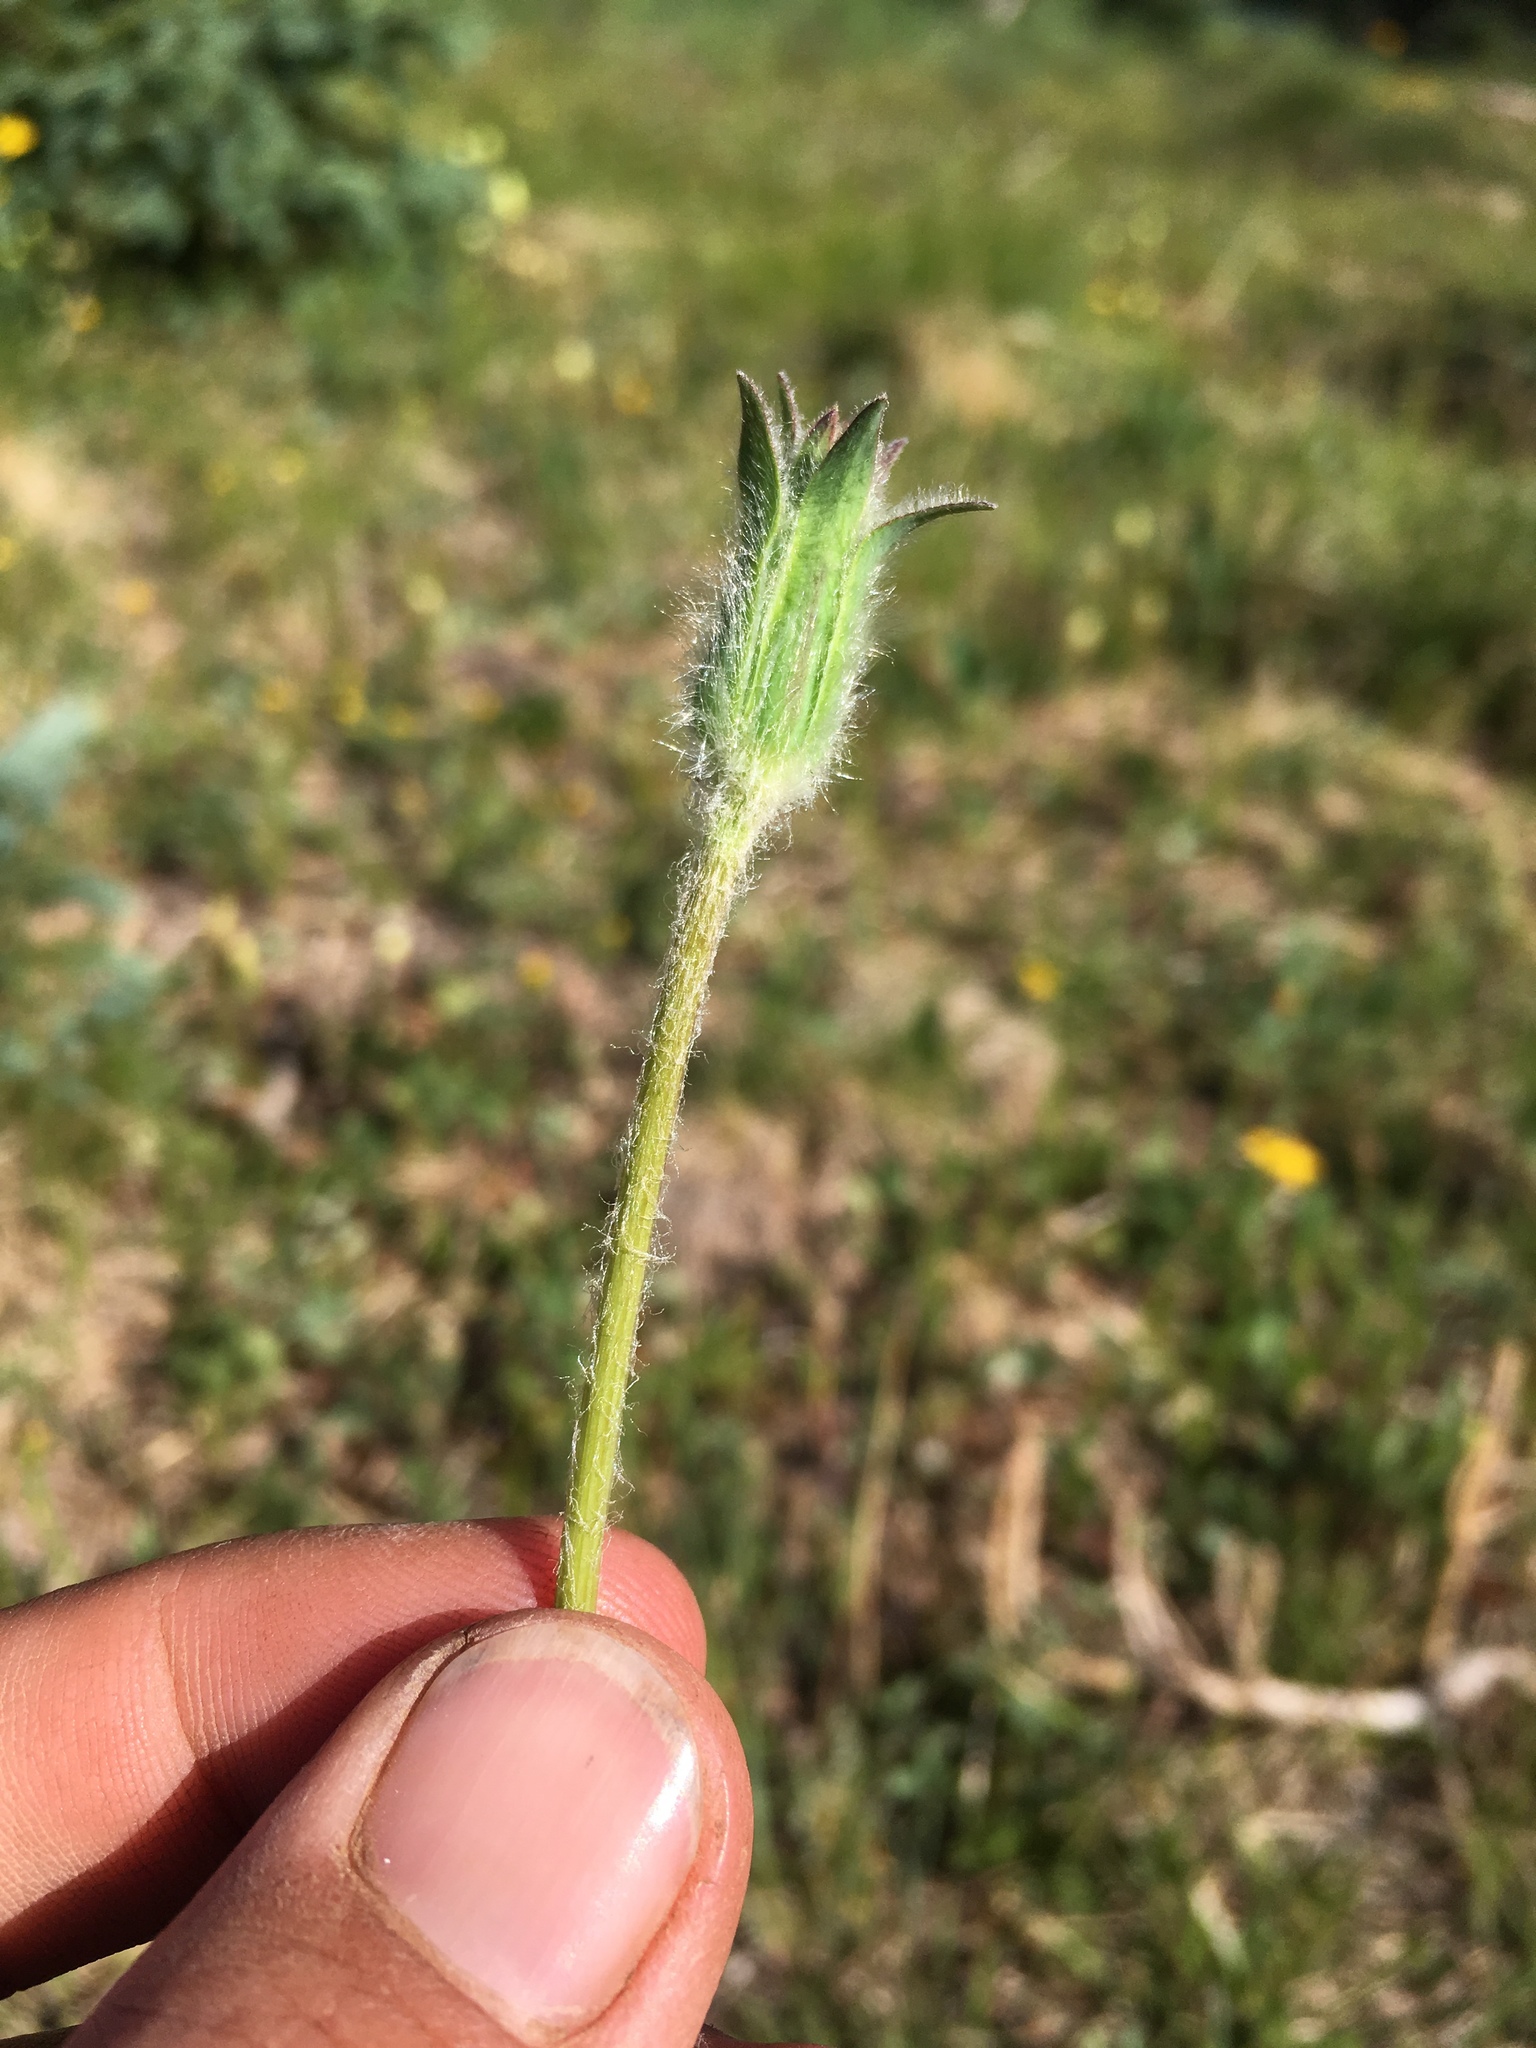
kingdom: Plantae
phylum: Tracheophyta
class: Magnoliopsida
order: Asterales
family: Asteraceae
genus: Agoseris
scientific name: Agoseris aurantiaca
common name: Mountain agoseris
